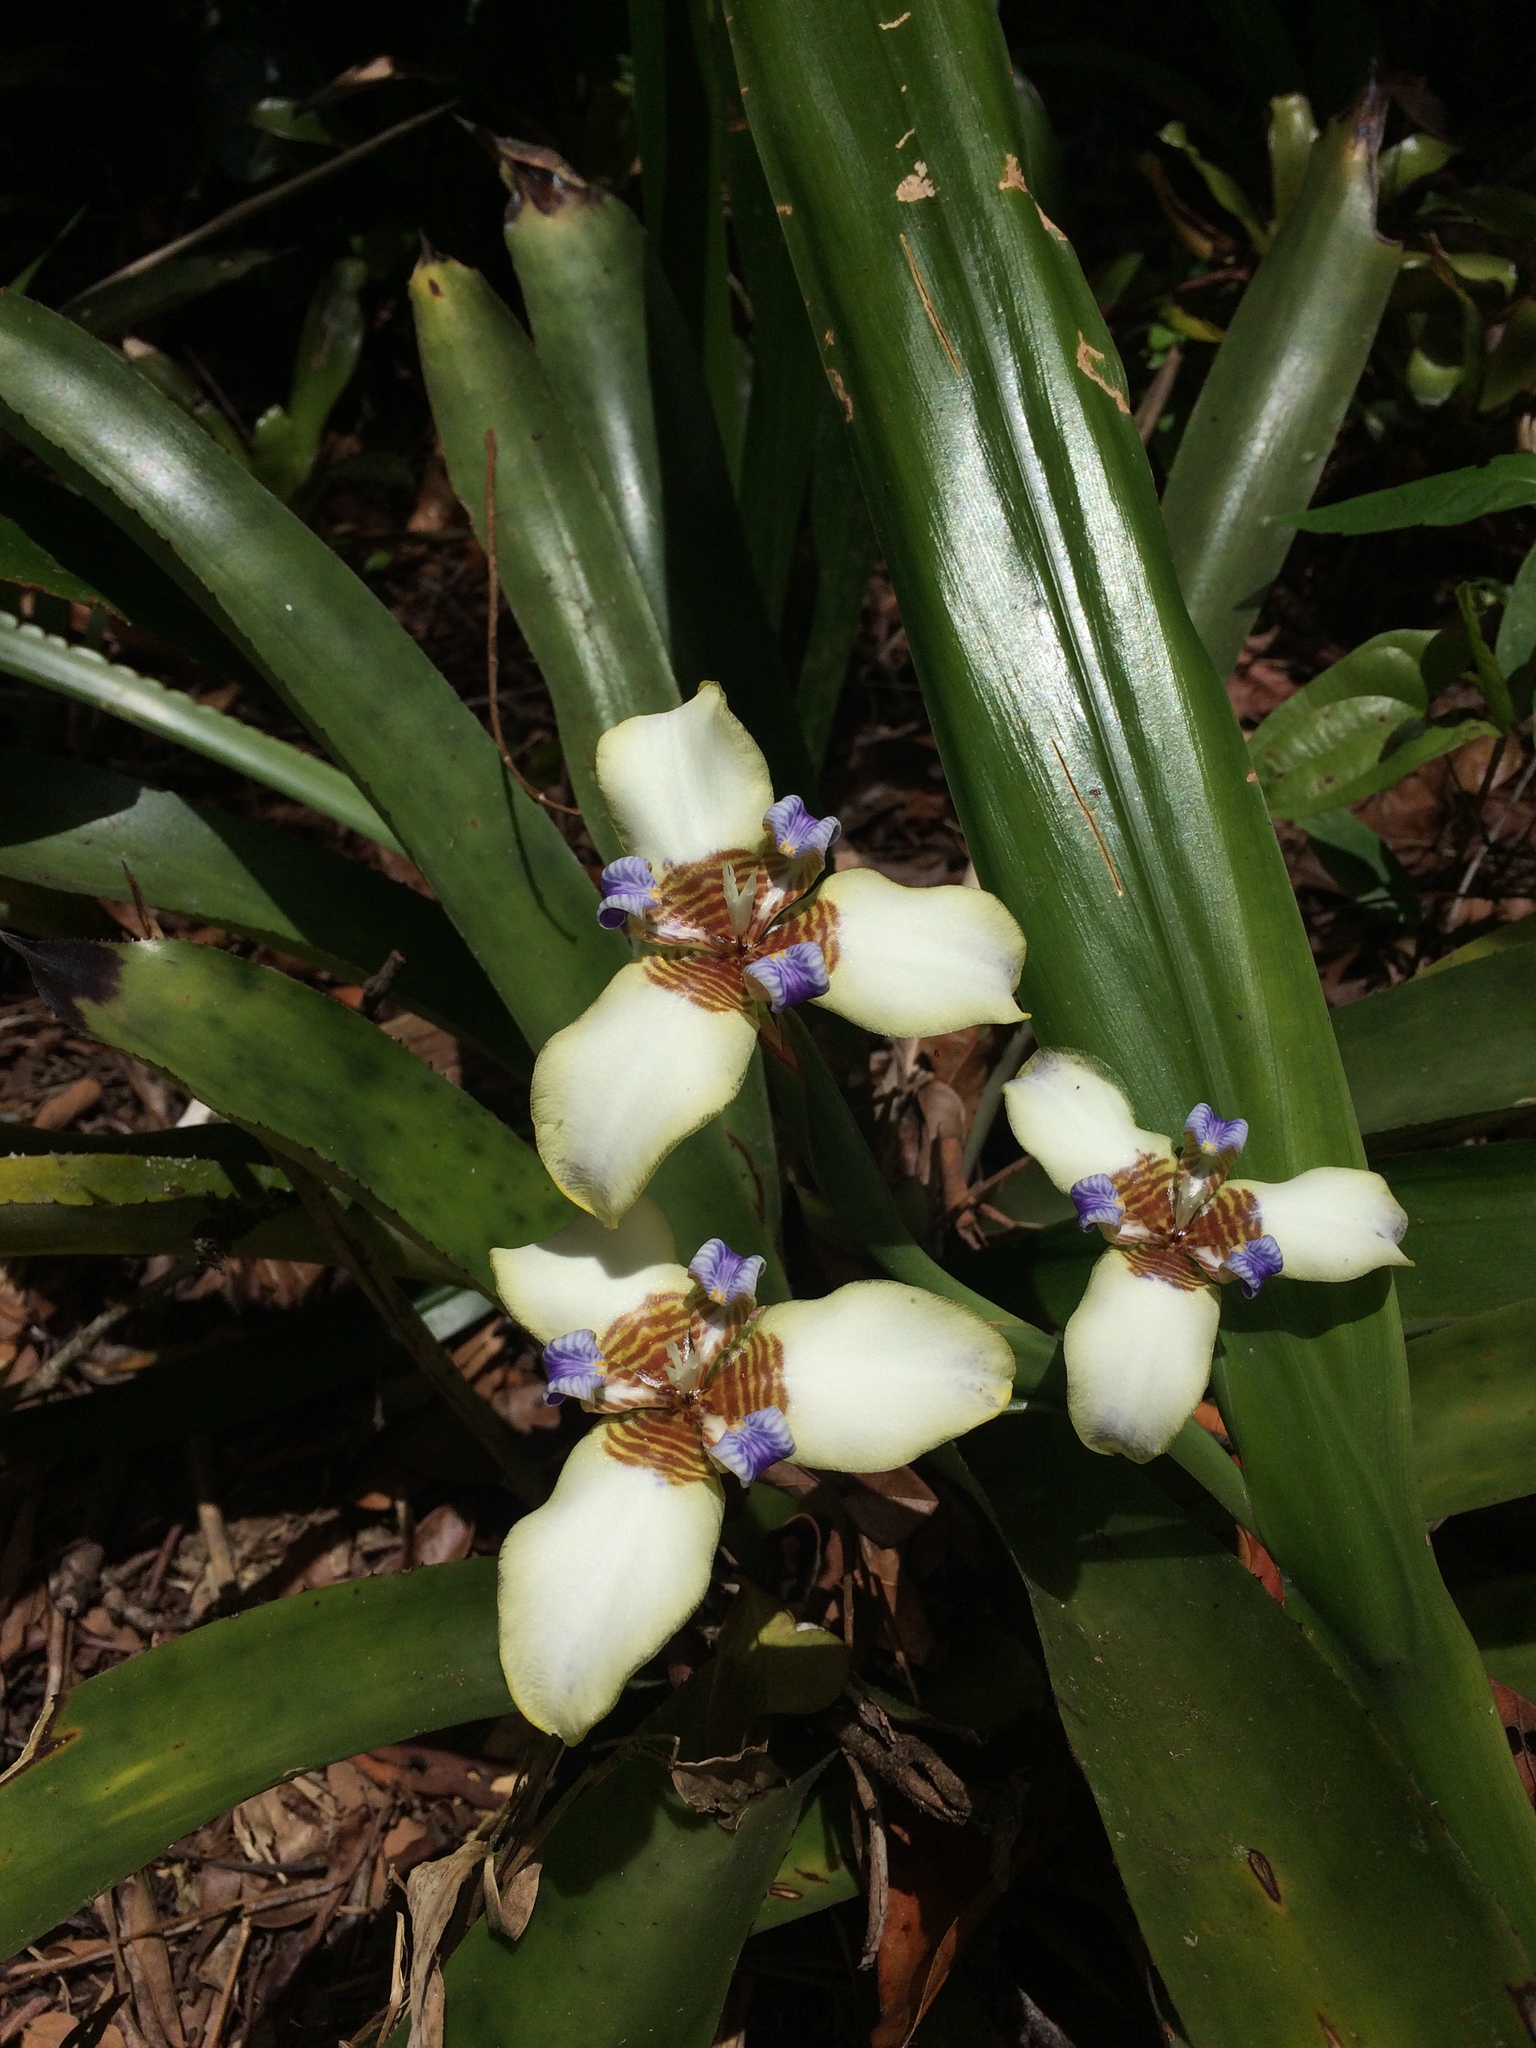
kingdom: Plantae
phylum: Tracheophyta
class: Liliopsida
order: Asparagales
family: Iridaceae
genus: Trimezia
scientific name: Trimezia portosecurensis
